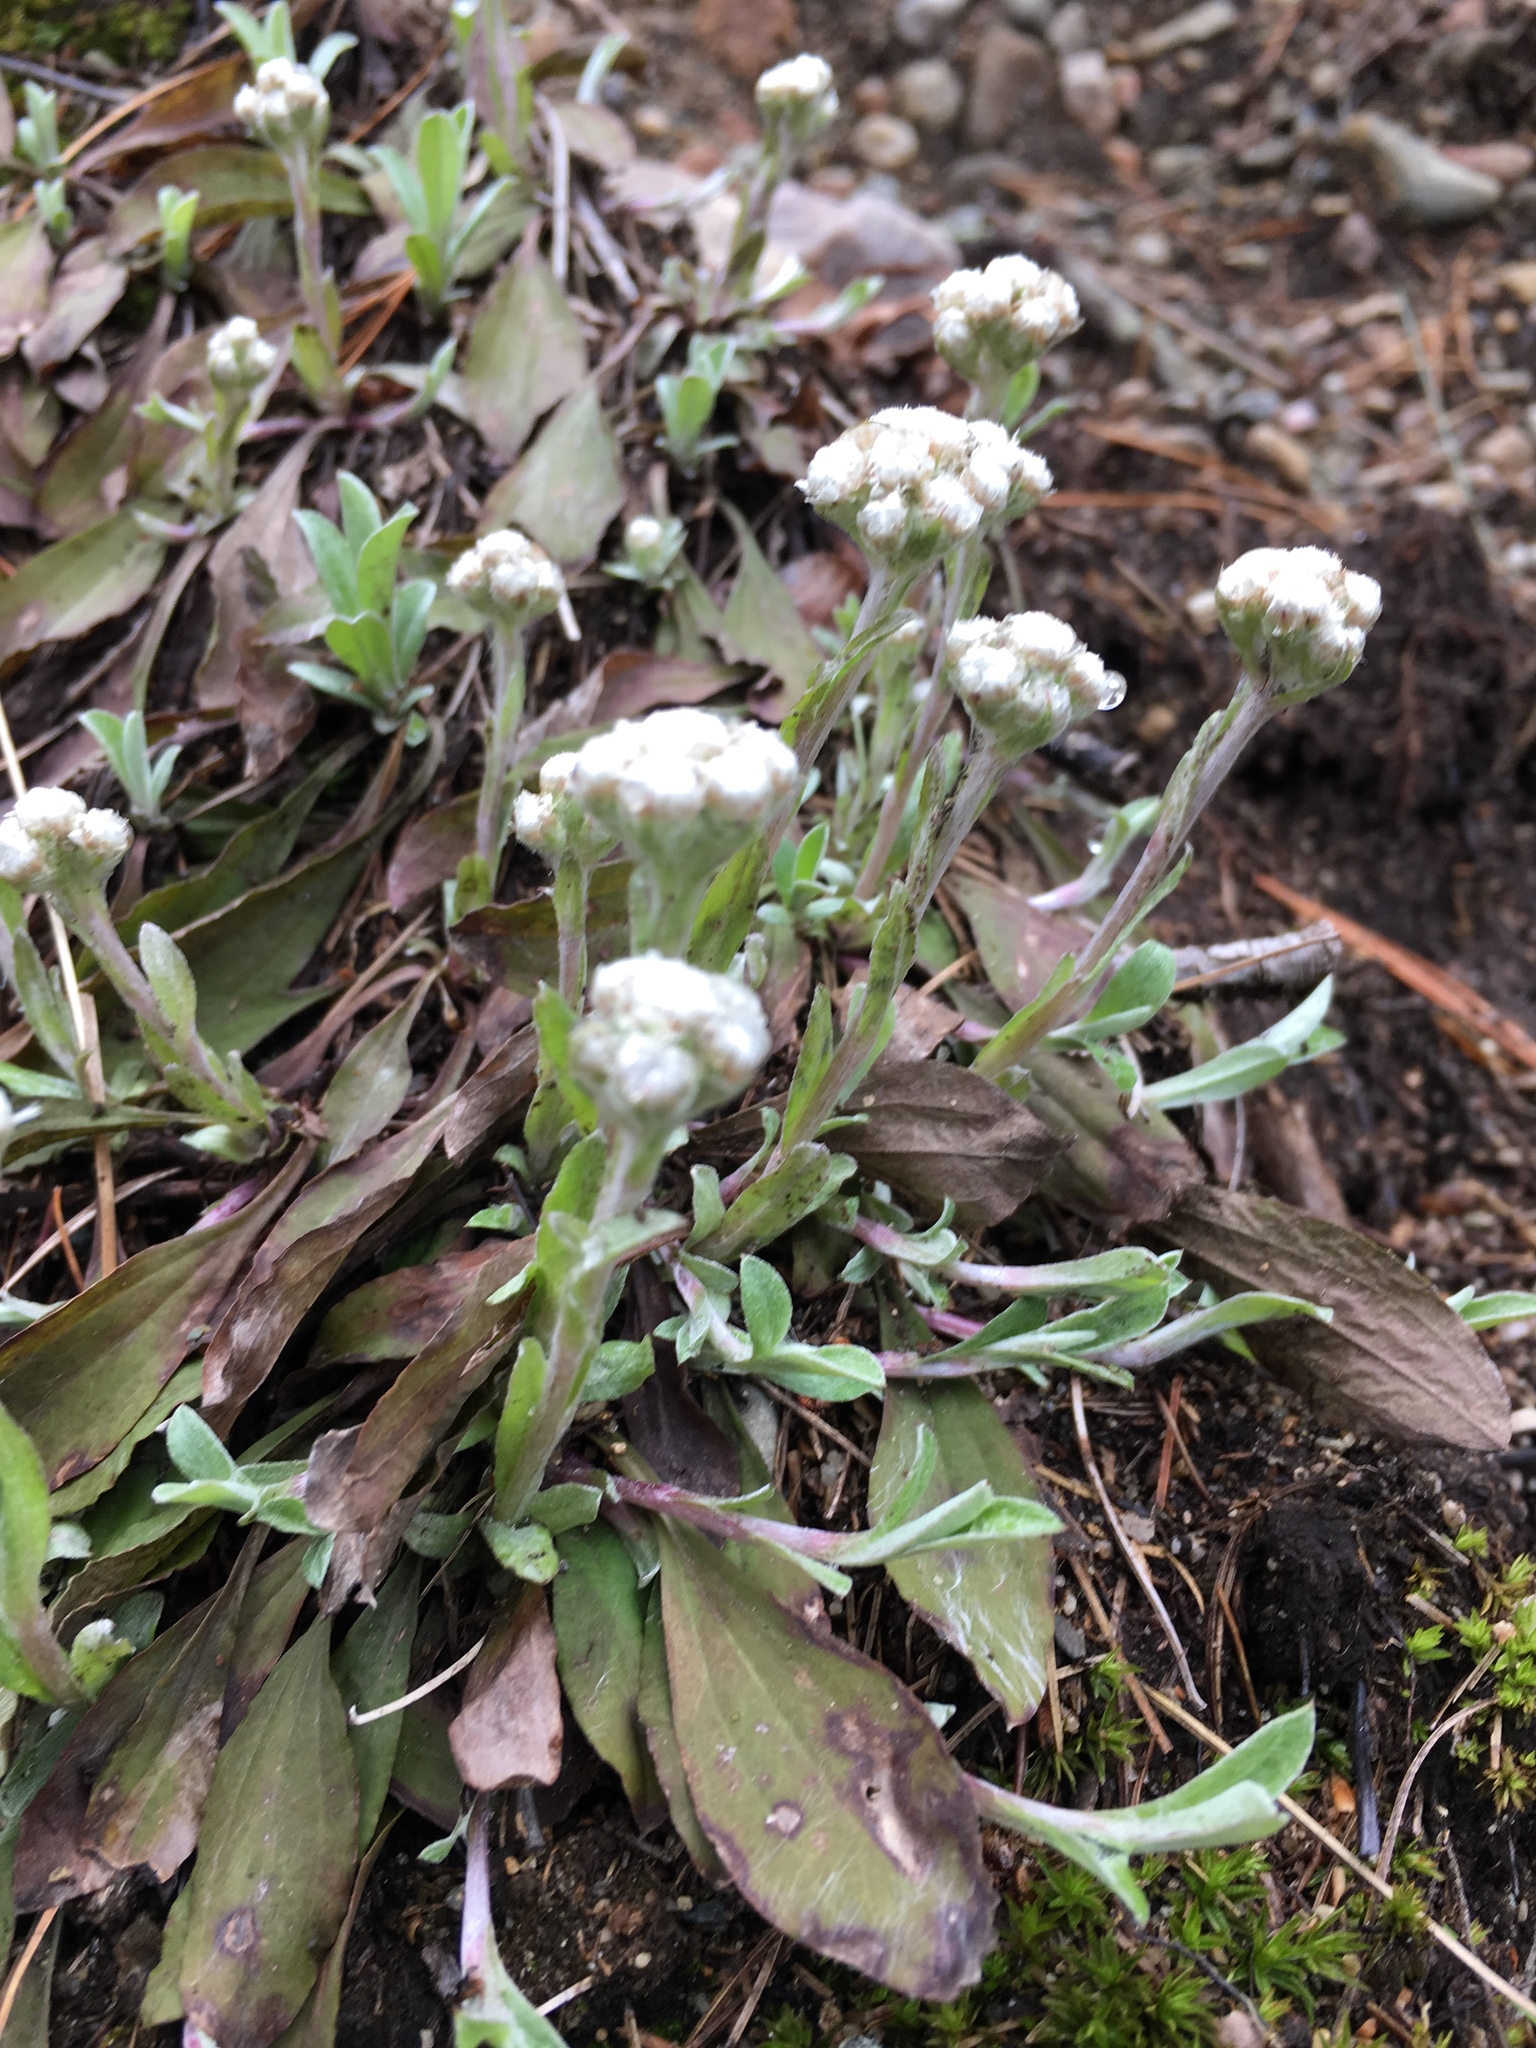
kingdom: Plantae
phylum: Tracheophyta
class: Magnoliopsida
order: Asterales
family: Asteraceae
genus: Antennaria
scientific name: Antennaria neglecta
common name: Field pussytoes
